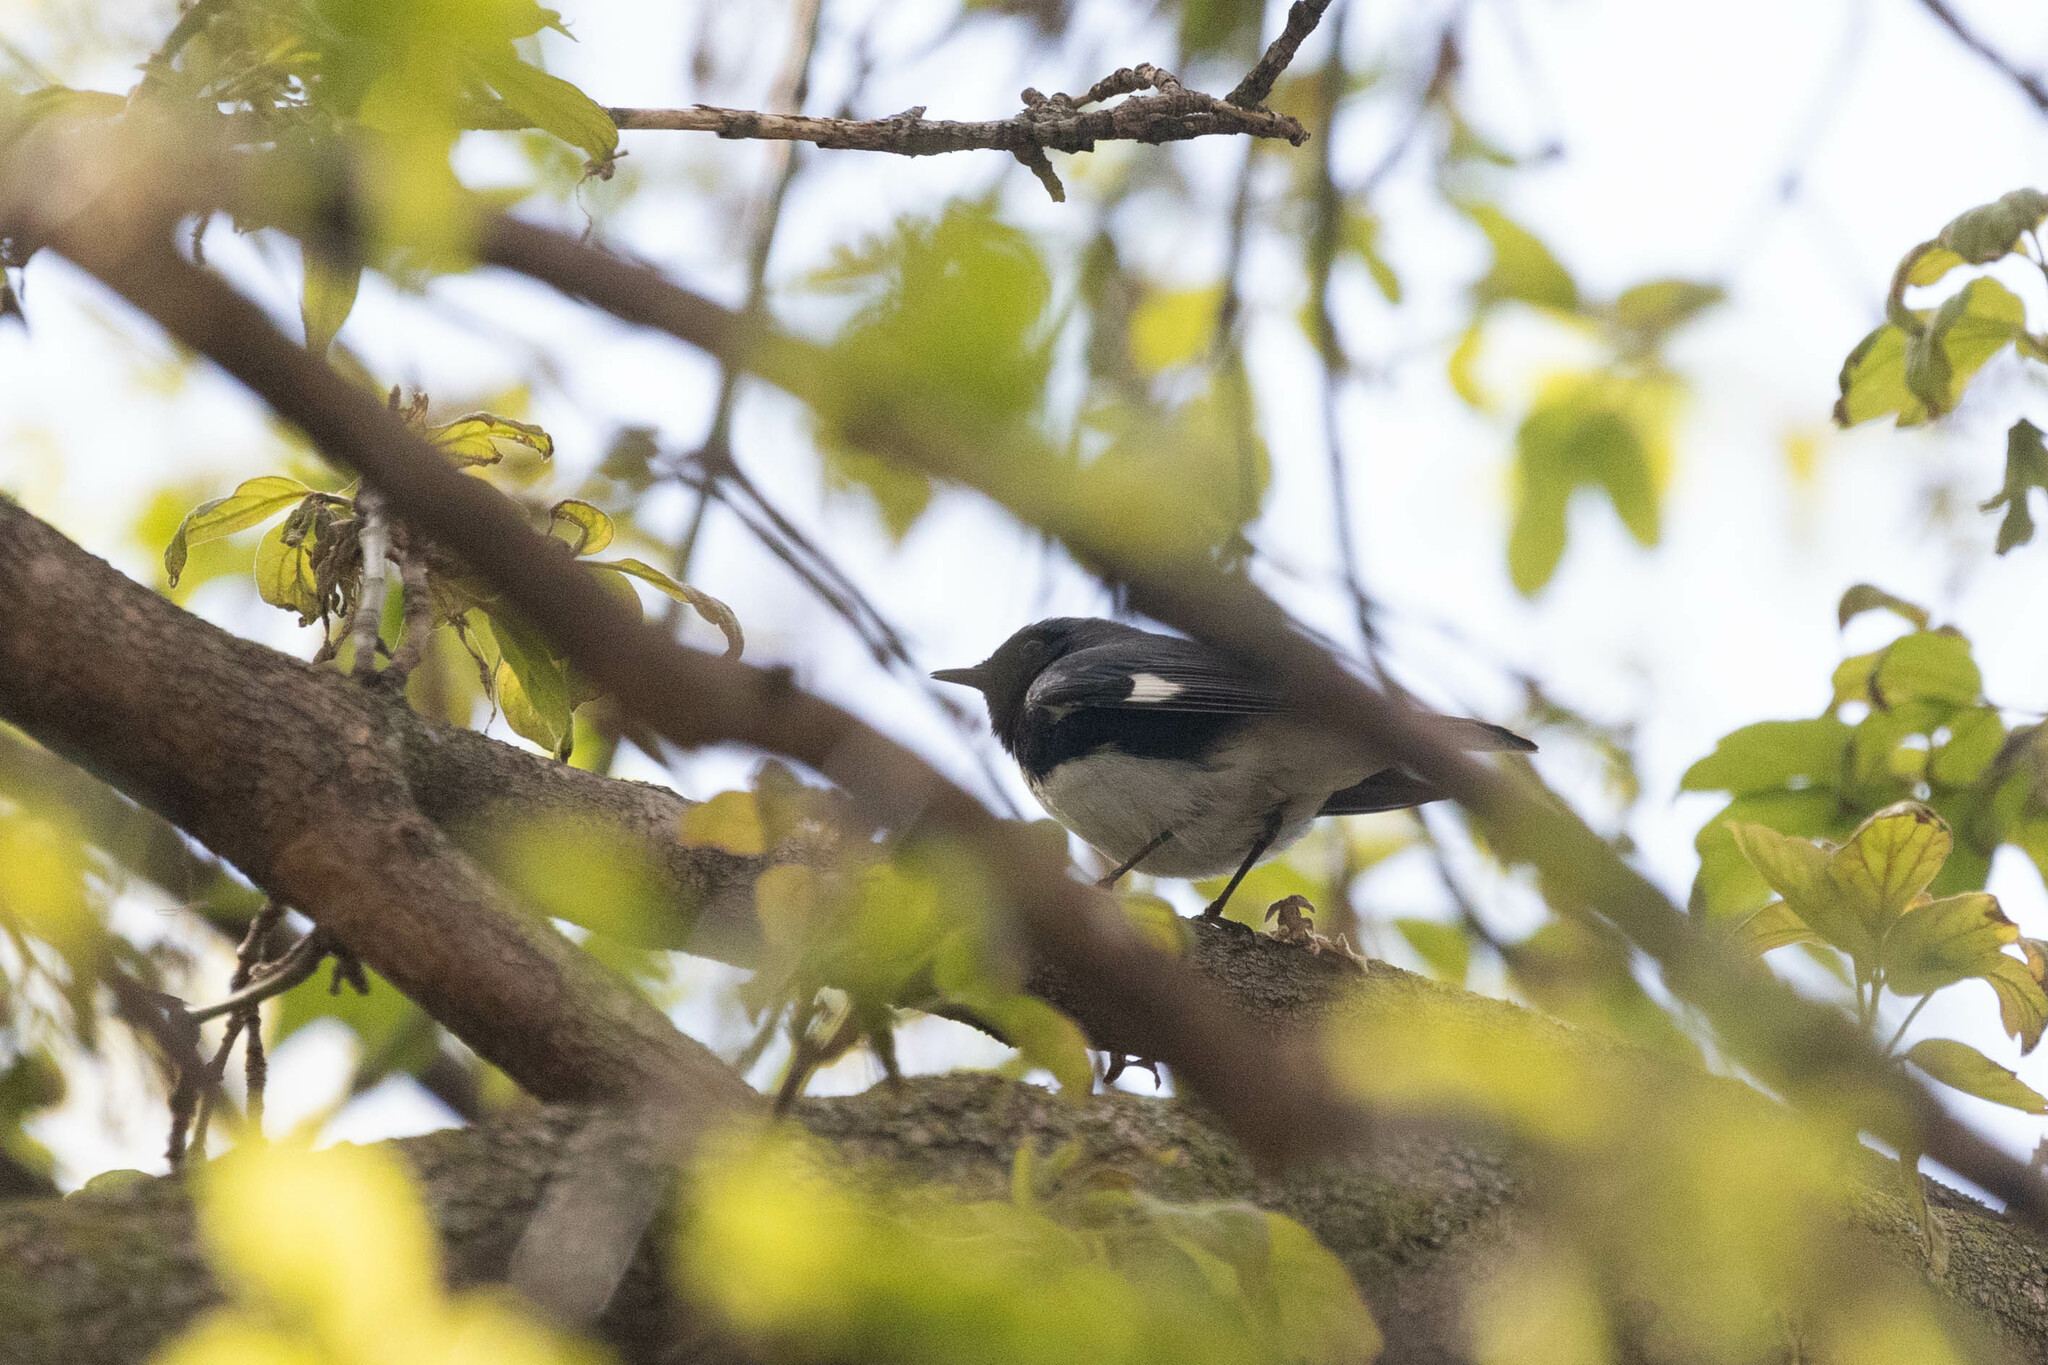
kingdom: Animalia
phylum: Chordata
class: Aves
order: Passeriformes
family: Parulidae
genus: Setophaga
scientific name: Setophaga caerulescens
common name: Black-throated blue warbler
